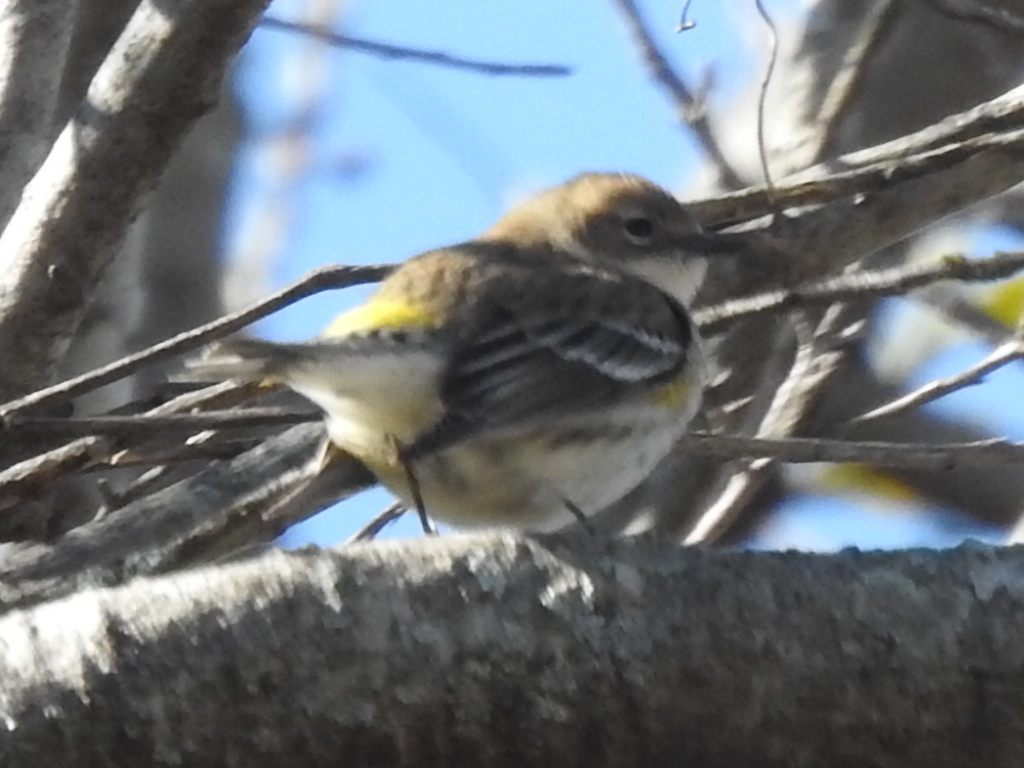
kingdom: Animalia
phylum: Chordata
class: Aves
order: Passeriformes
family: Parulidae
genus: Setophaga
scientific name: Setophaga coronata
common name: Myrtle warbler
